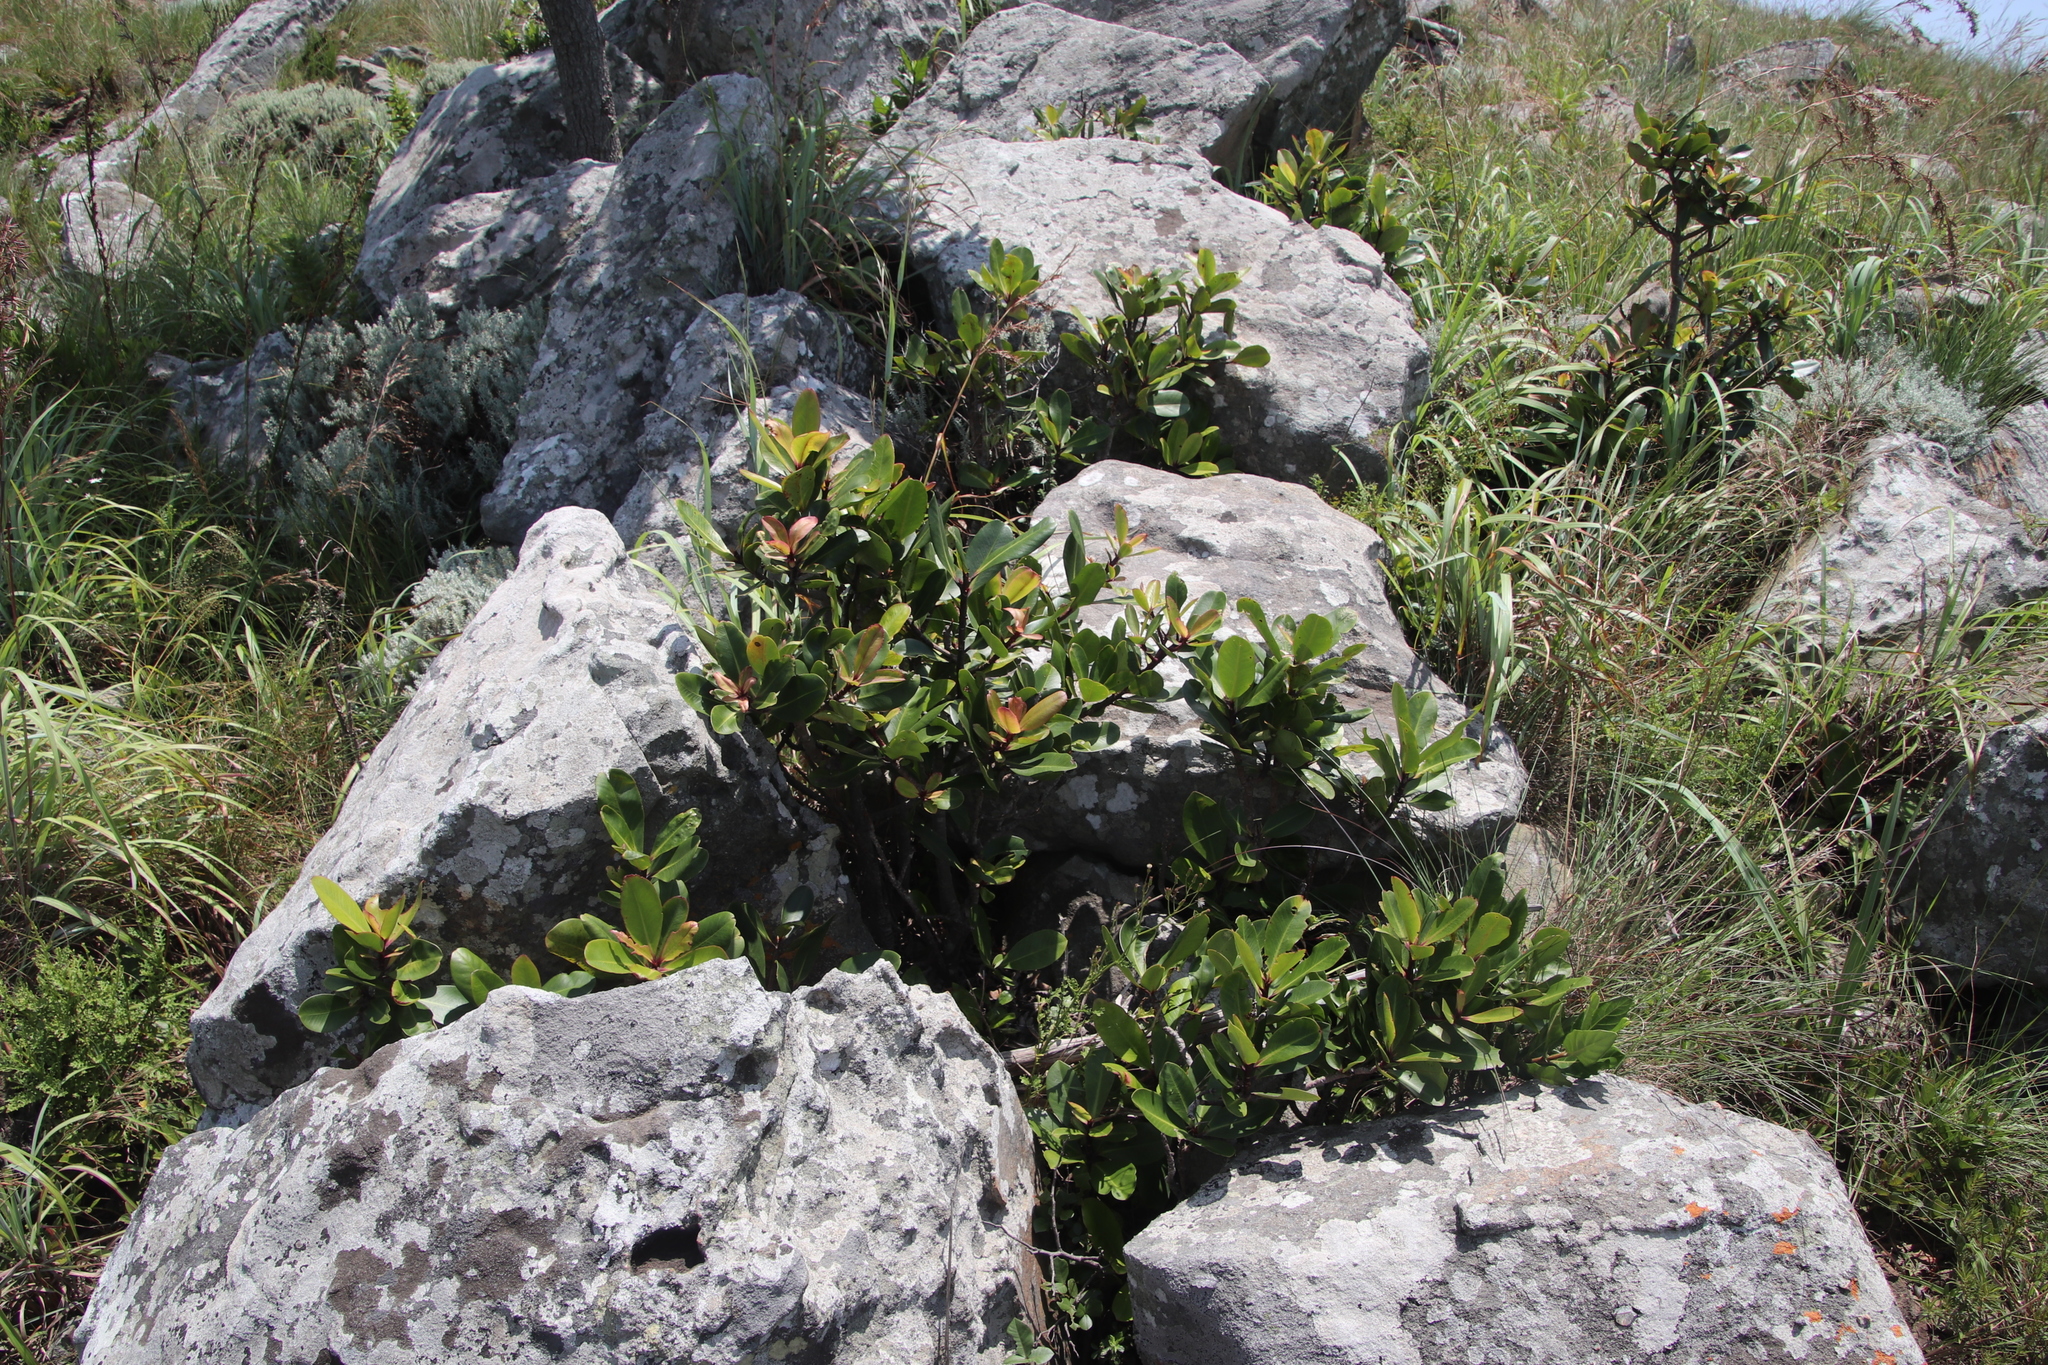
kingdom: Plantae
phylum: Tracheophyta
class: Magnoliopsida
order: Ericales
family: Primulaceae
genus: Myrsine
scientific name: Myrsine melanophloeos
